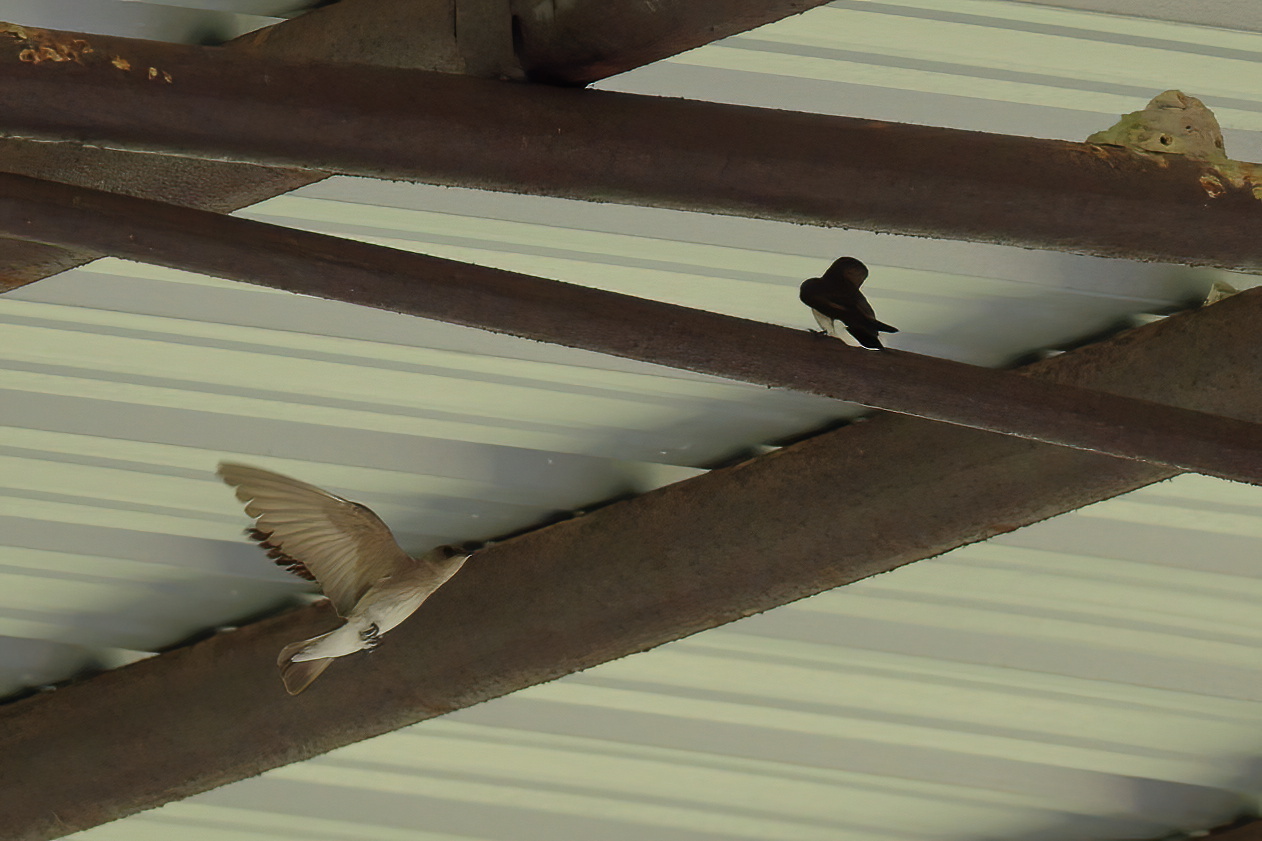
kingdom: Animalia
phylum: Chordata
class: Aves
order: Passeriformes
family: Hirundinidae
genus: Stelgidopteryx
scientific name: Stelgidopteryx serripennis
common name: Northern rough-winged swallow
